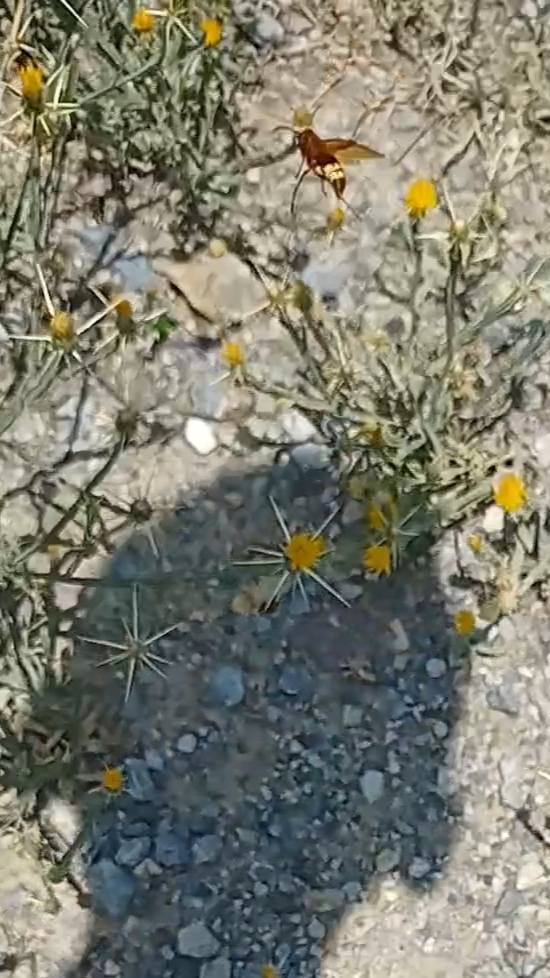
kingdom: Animalia
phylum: Arthropoda
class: Insecta
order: Hymenoptera
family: Vespidae
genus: Vespa
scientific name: Vespa orientalis
